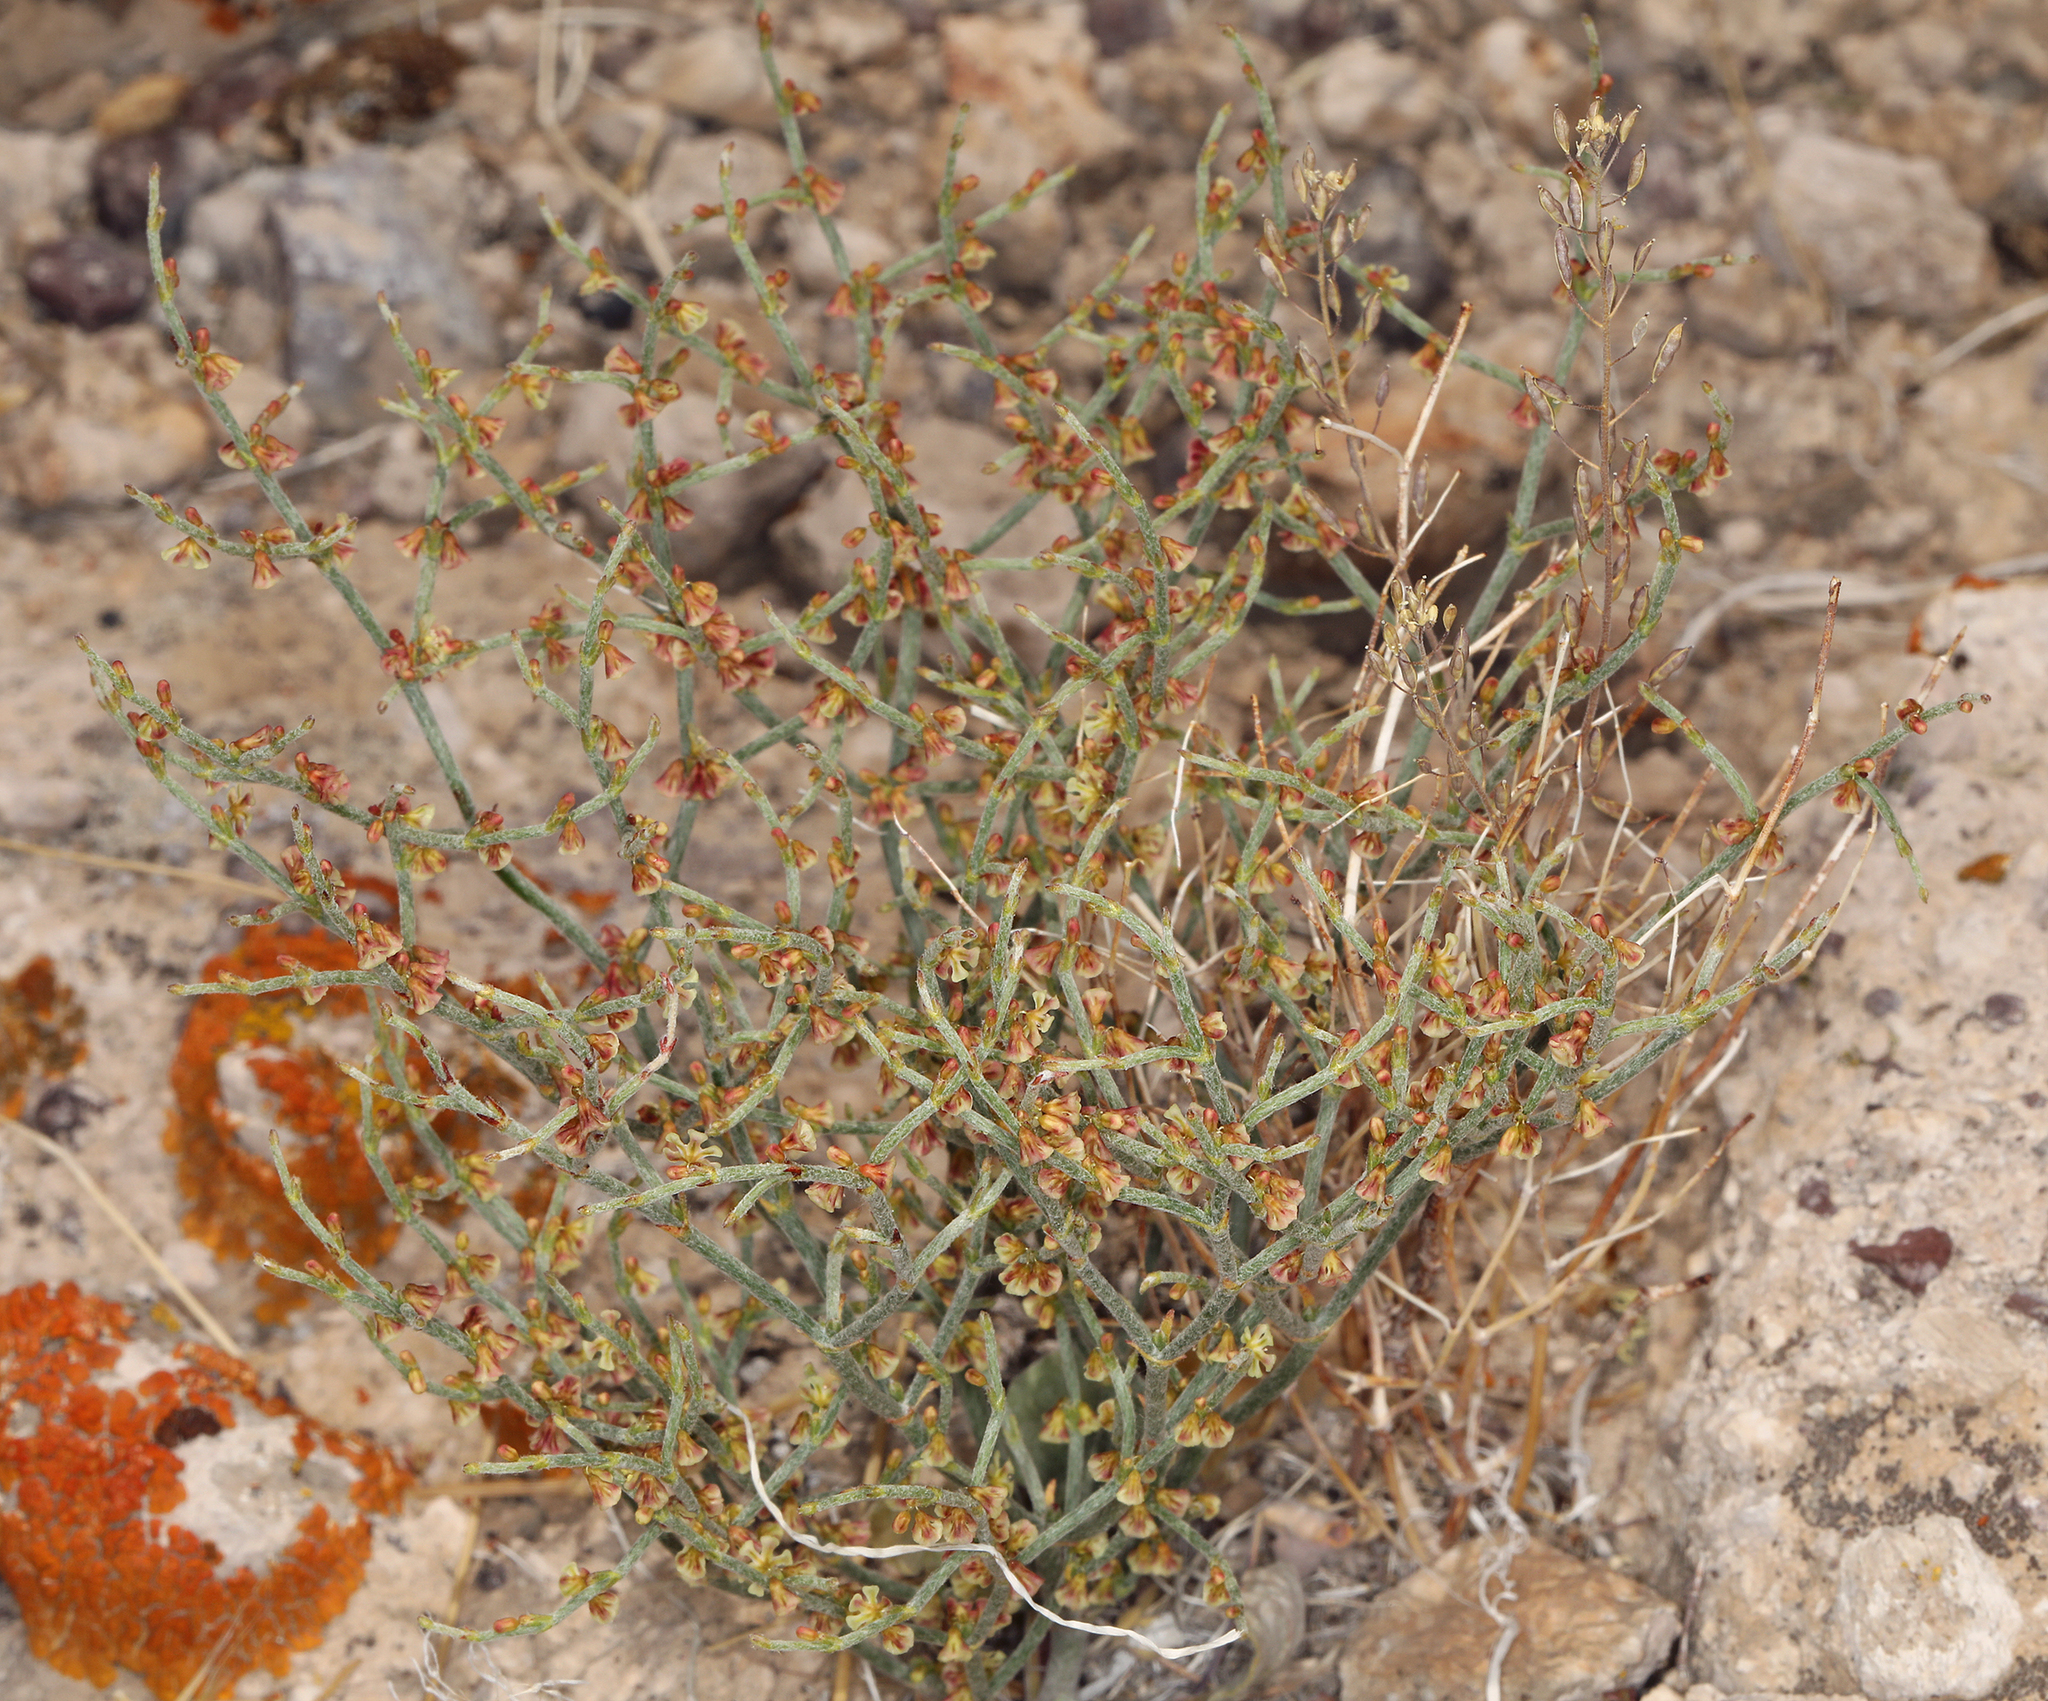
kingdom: Plantae
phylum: Tracheophyta
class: Magnoliopsida
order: Caryophyllales
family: Polygonaceae
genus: Eriogonum
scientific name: Eriogonum nidularium
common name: Bird's-nest wild buckwheat
